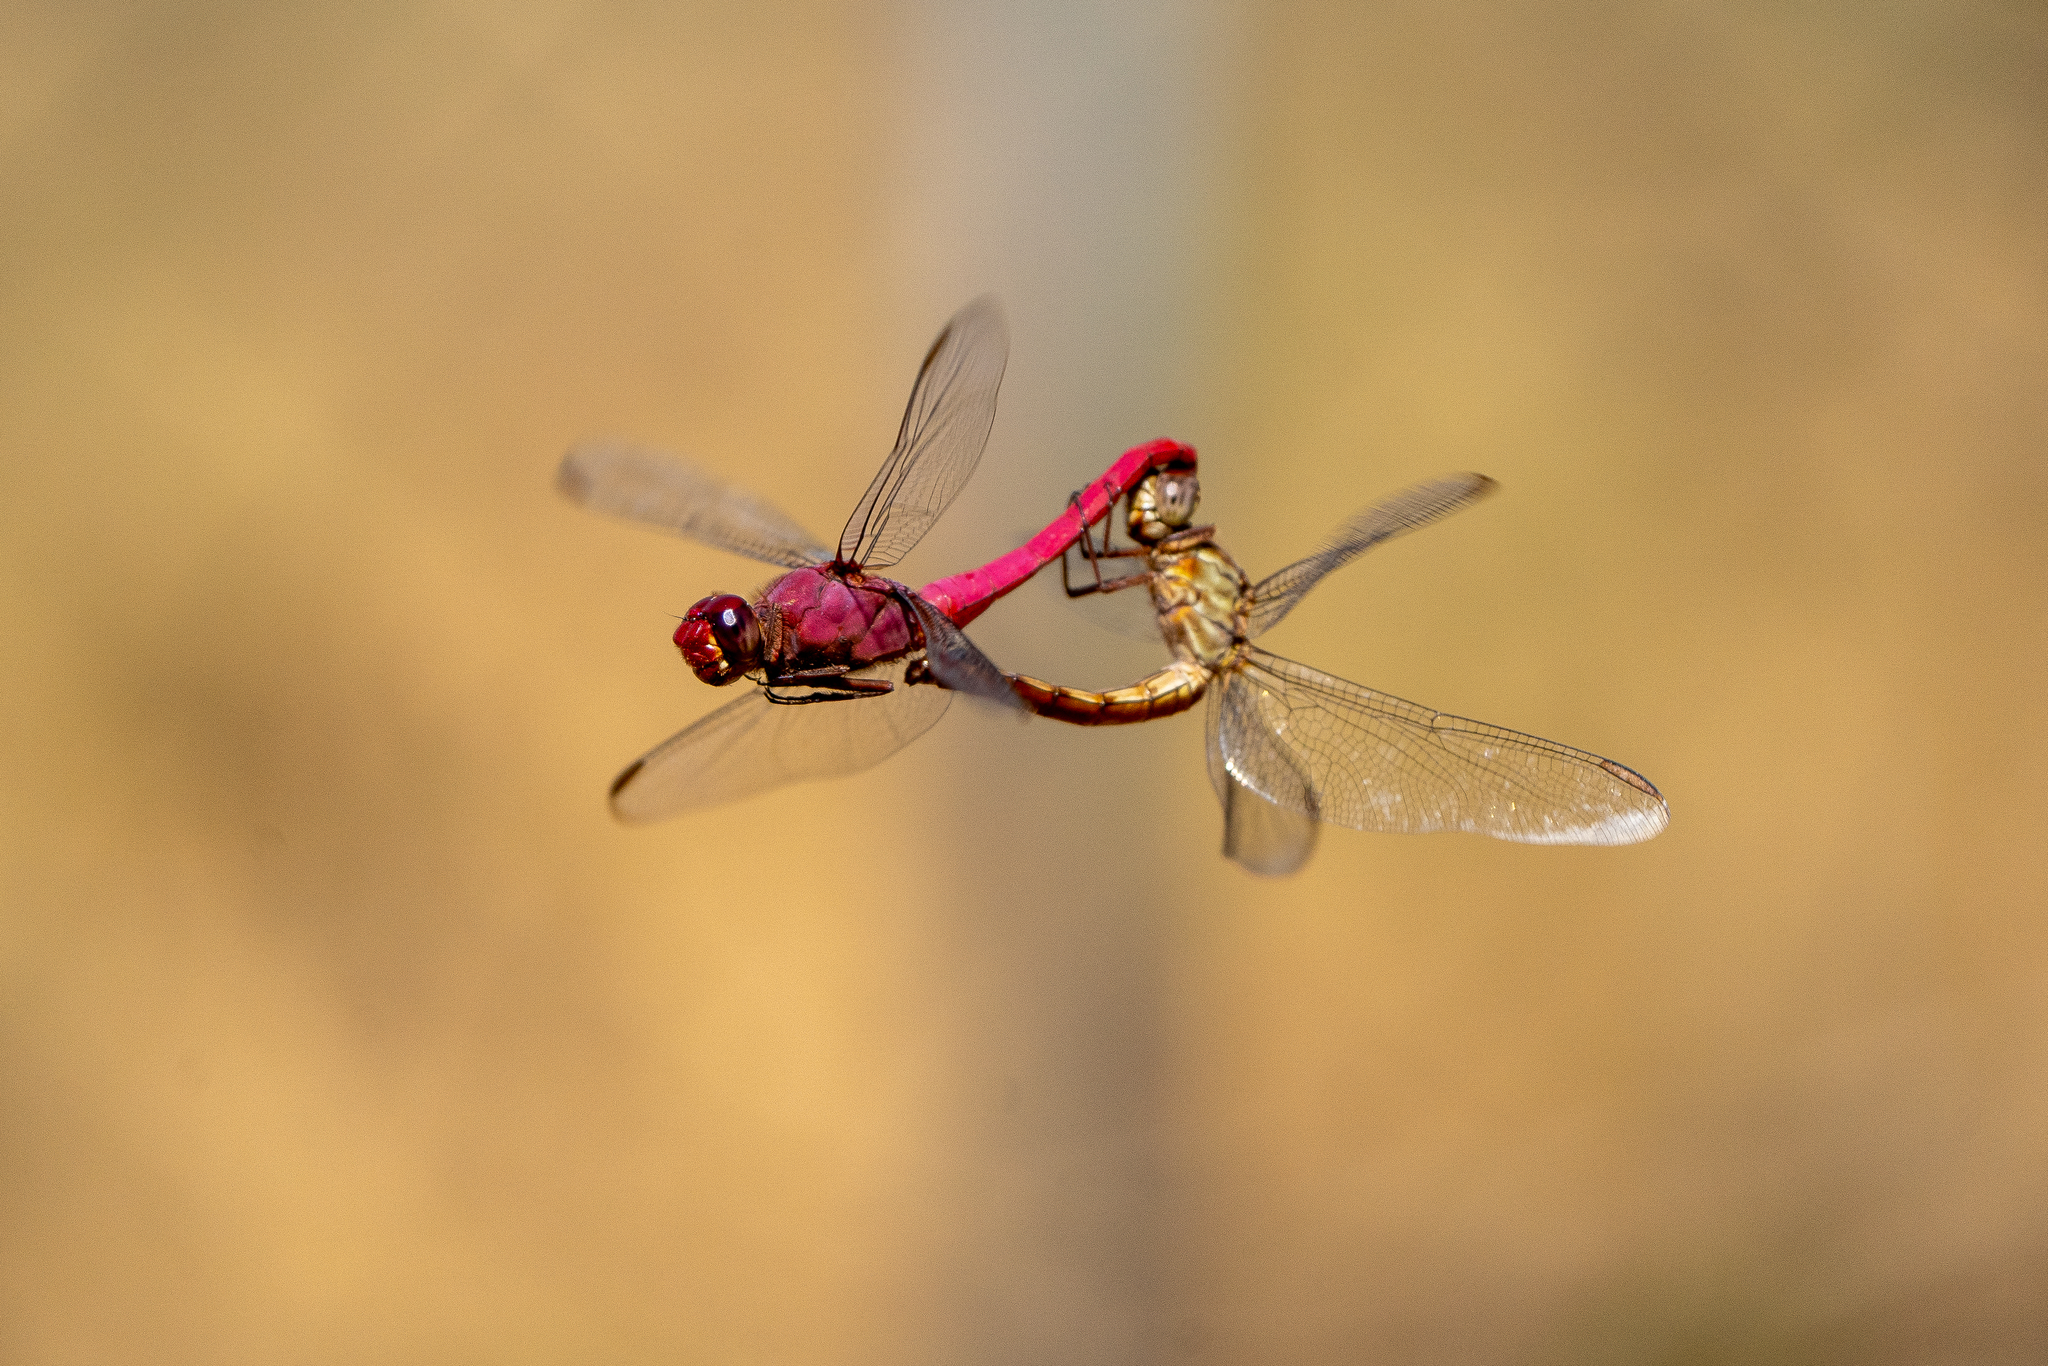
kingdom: Animalia
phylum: Arthropoda
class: Insecta
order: Odonata
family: Libellulidae
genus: Orthemis
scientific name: Orthemis discolor
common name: Carmine skimmer
